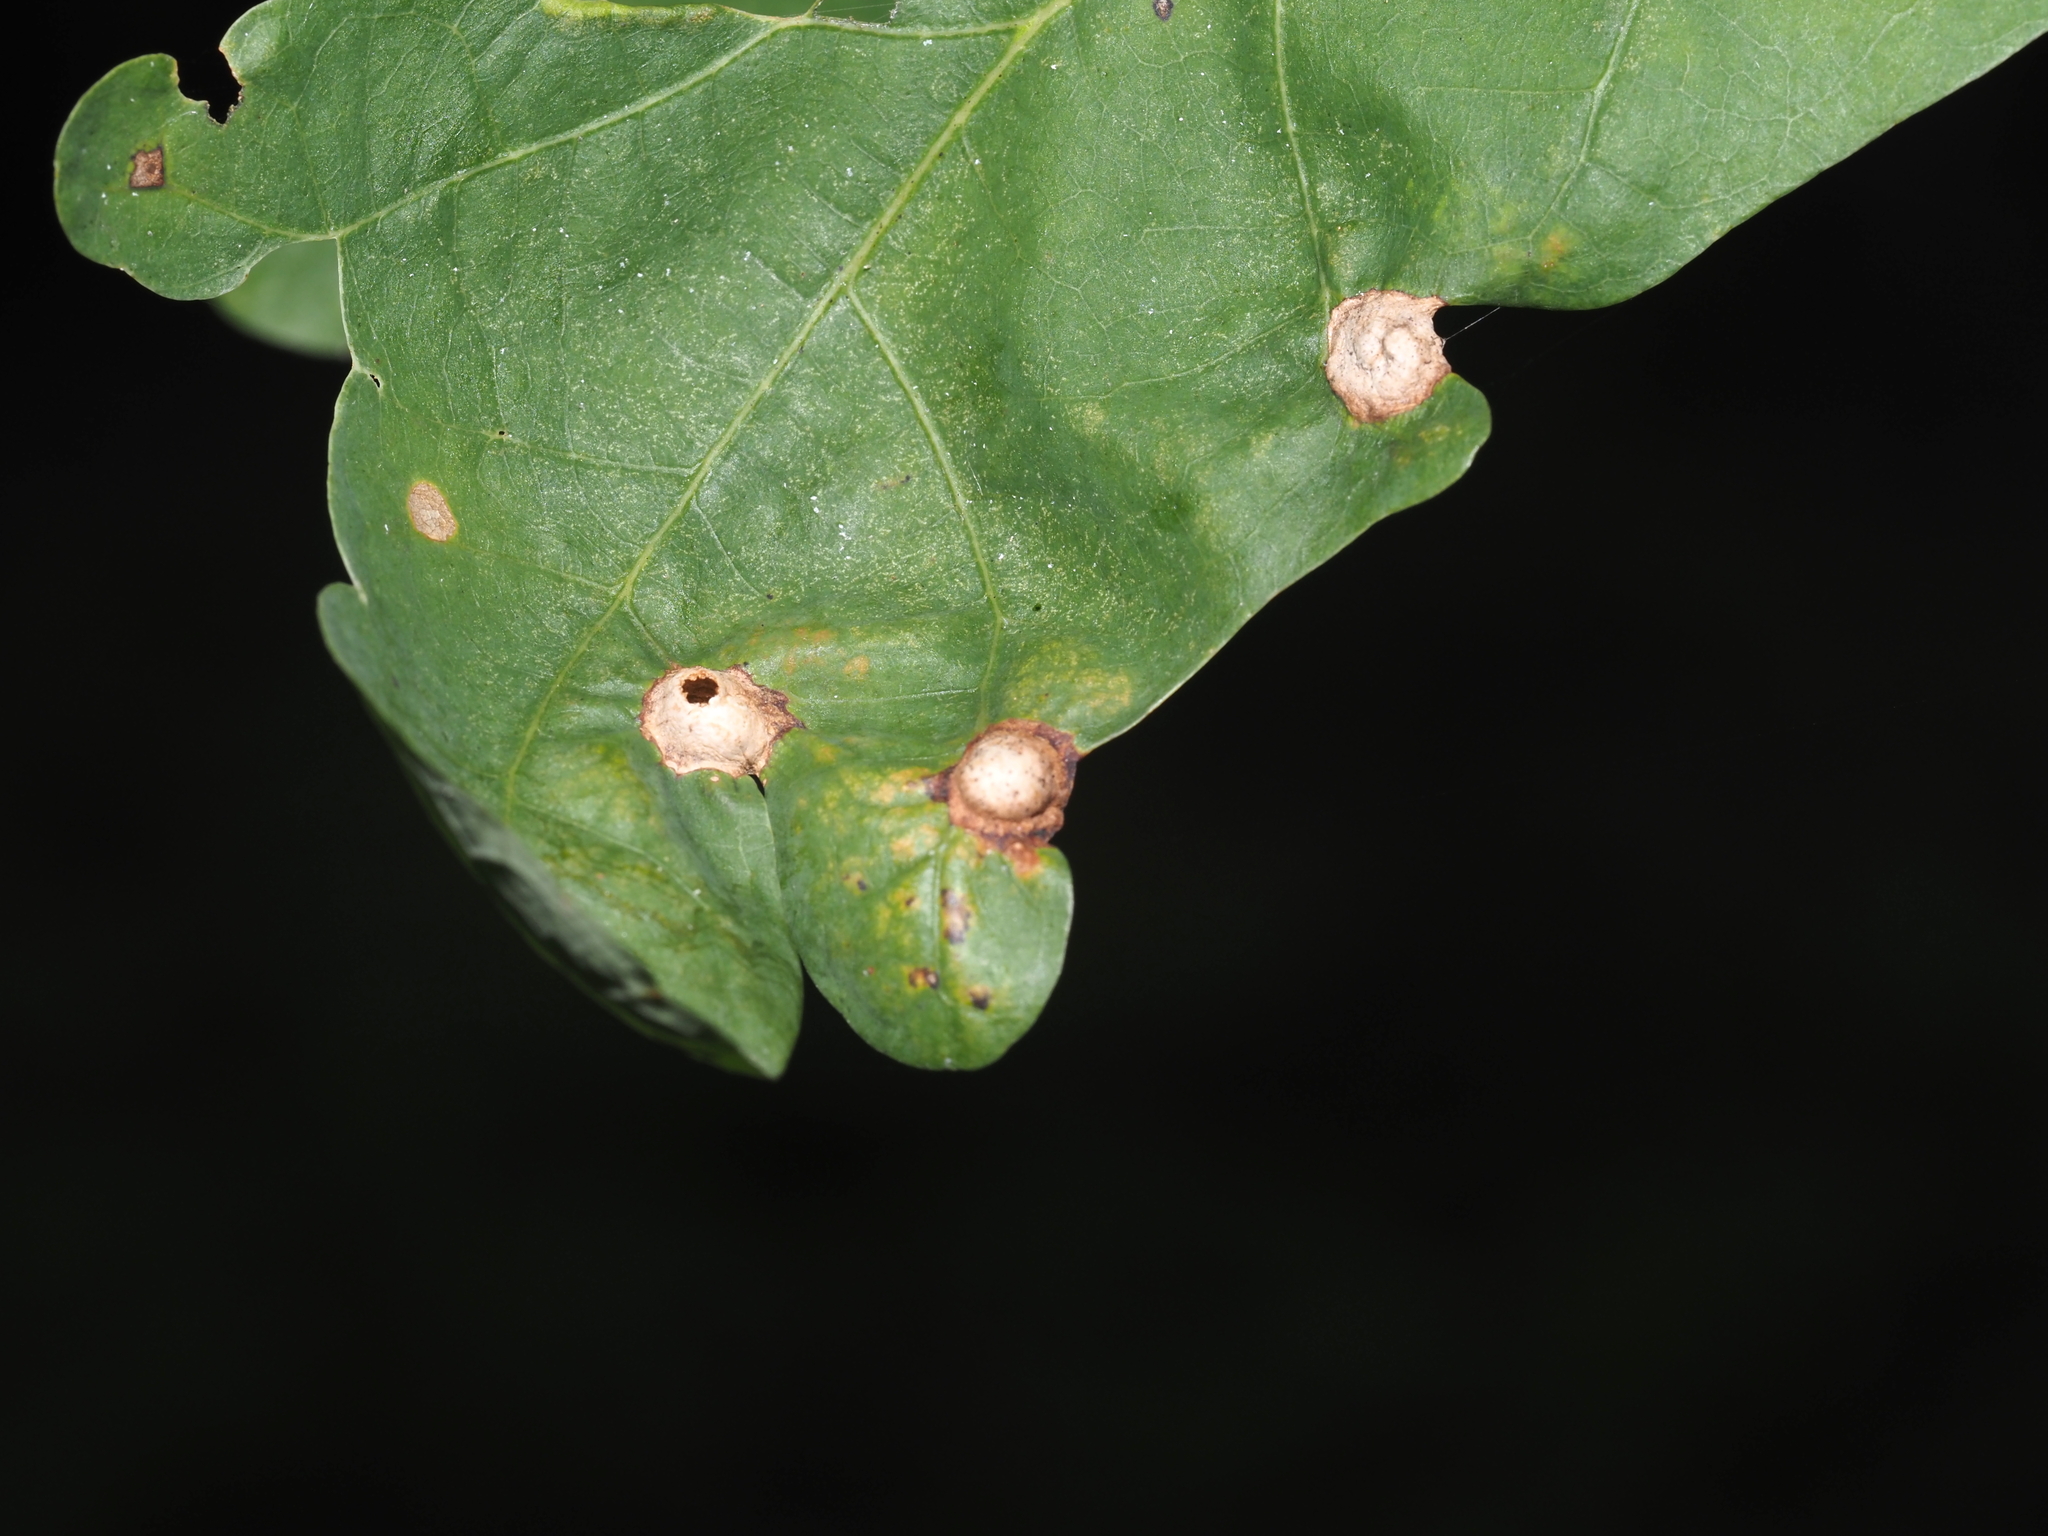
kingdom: Animalia
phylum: Arthropoda
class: Insecta
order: Hymenoptera
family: Cynipidae
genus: Callirhytis
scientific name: Callirhytis
